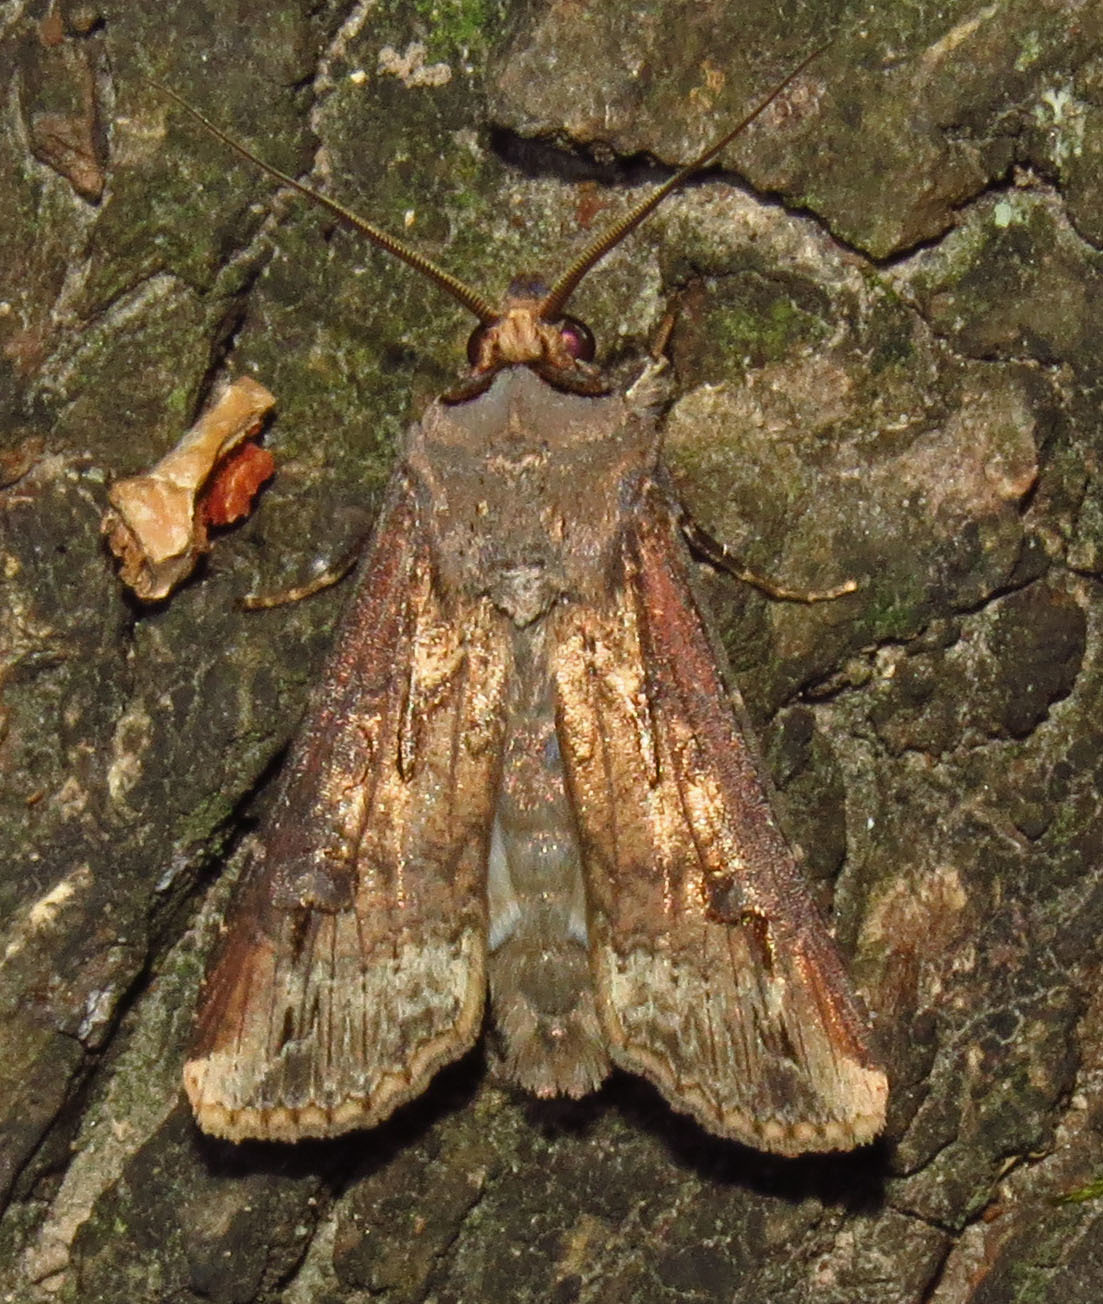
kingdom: Animalia
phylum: Arthropoda
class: Insecta
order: Lepidoptera
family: Noctuidae
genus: Agrotis
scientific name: Agrotis ipsilon
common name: Dark sword-grass
